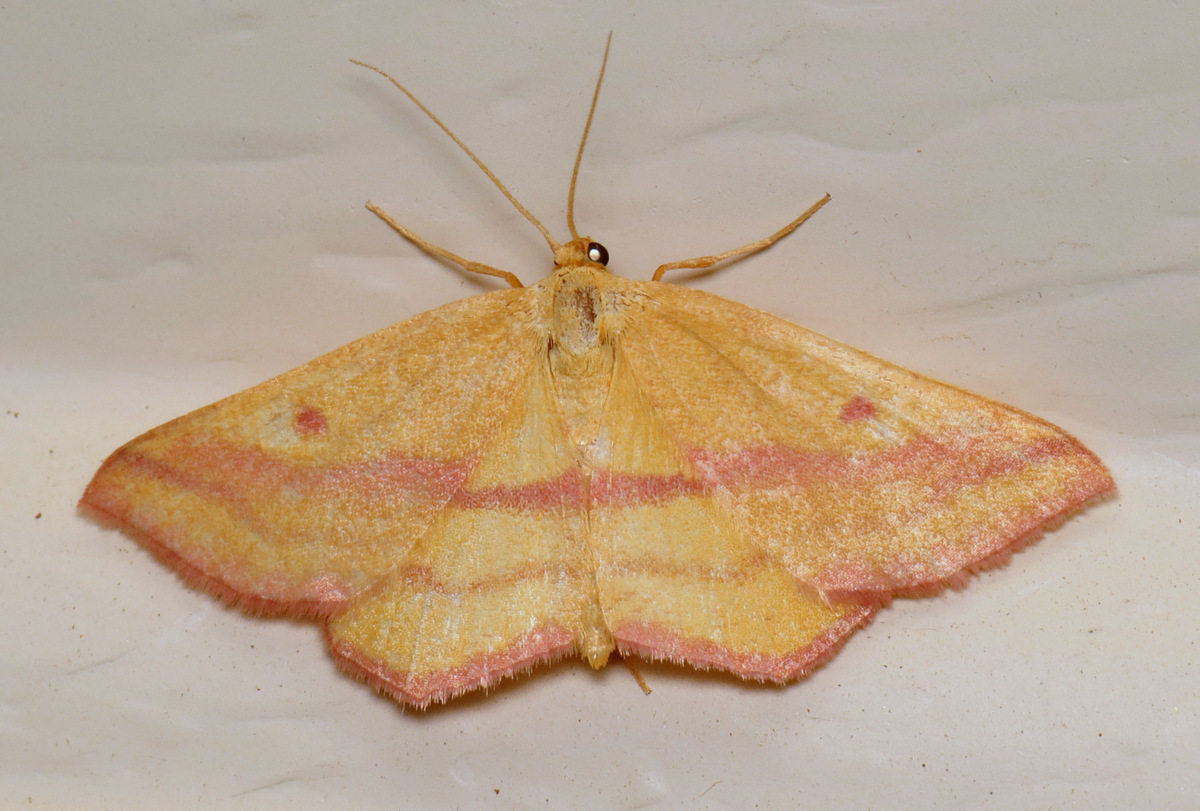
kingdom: Animalia
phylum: Arthropoda
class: Insecta
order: Lepidoptera
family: Geometridae
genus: Haematopis
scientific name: Haematopis grataria
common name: Chickweed geometer
